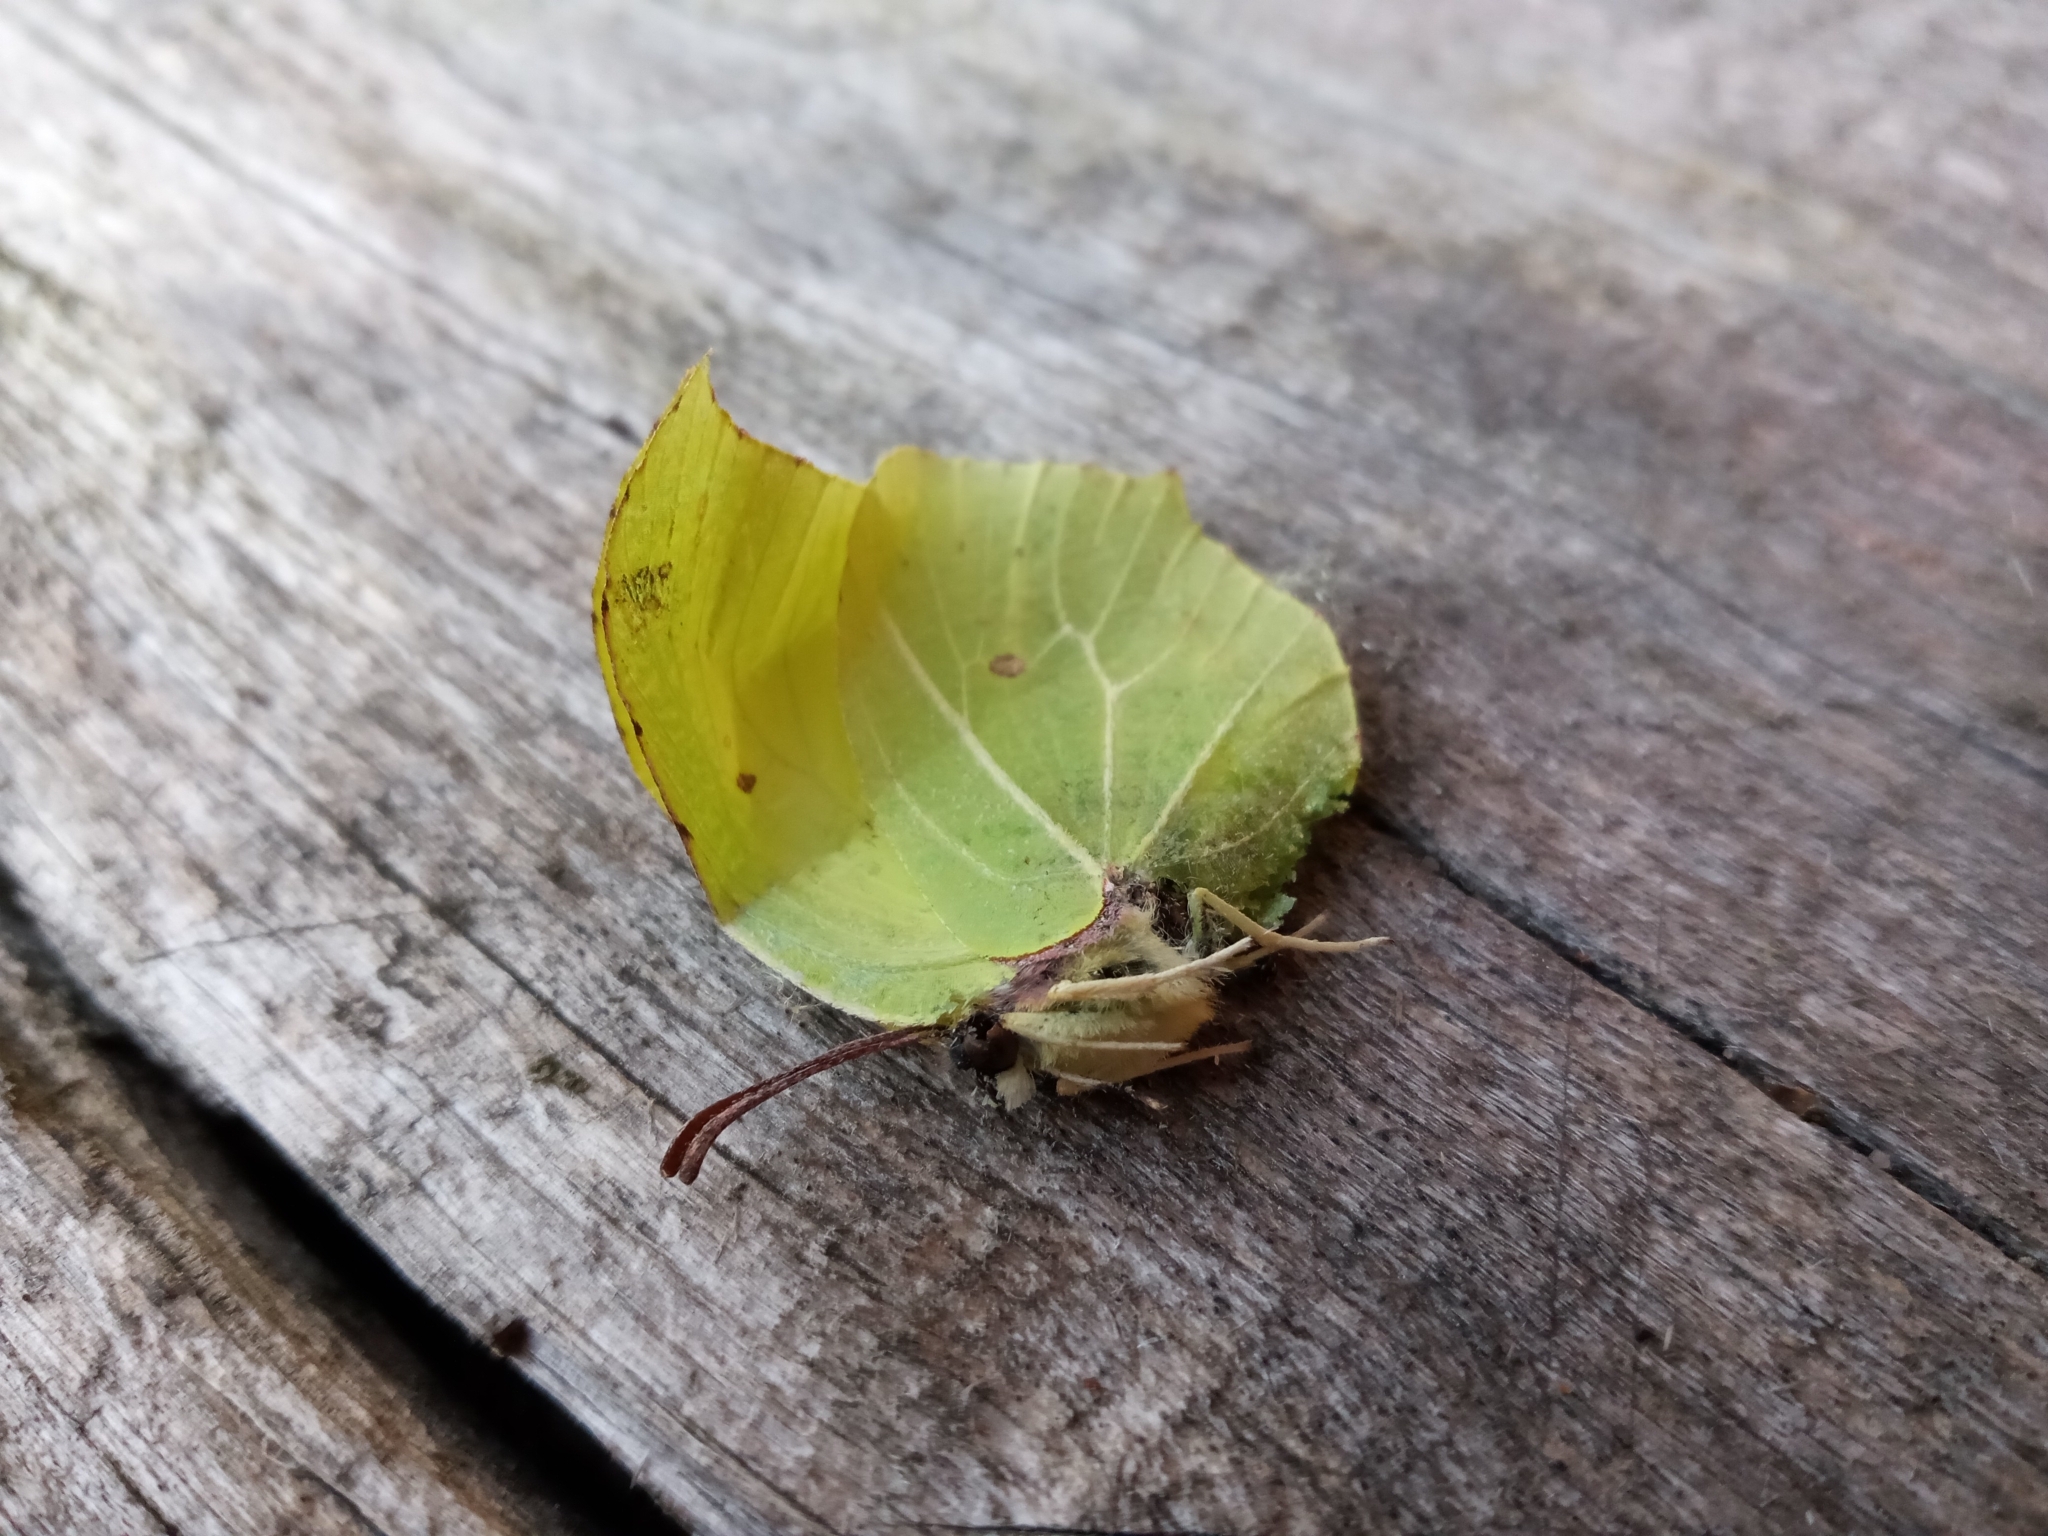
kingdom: Animalia
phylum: Arthropoda
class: Insecta
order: Lepidoptera
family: Pieridae
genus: Gonepteryx
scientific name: Gonepteryx rhamni
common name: Brimstone
